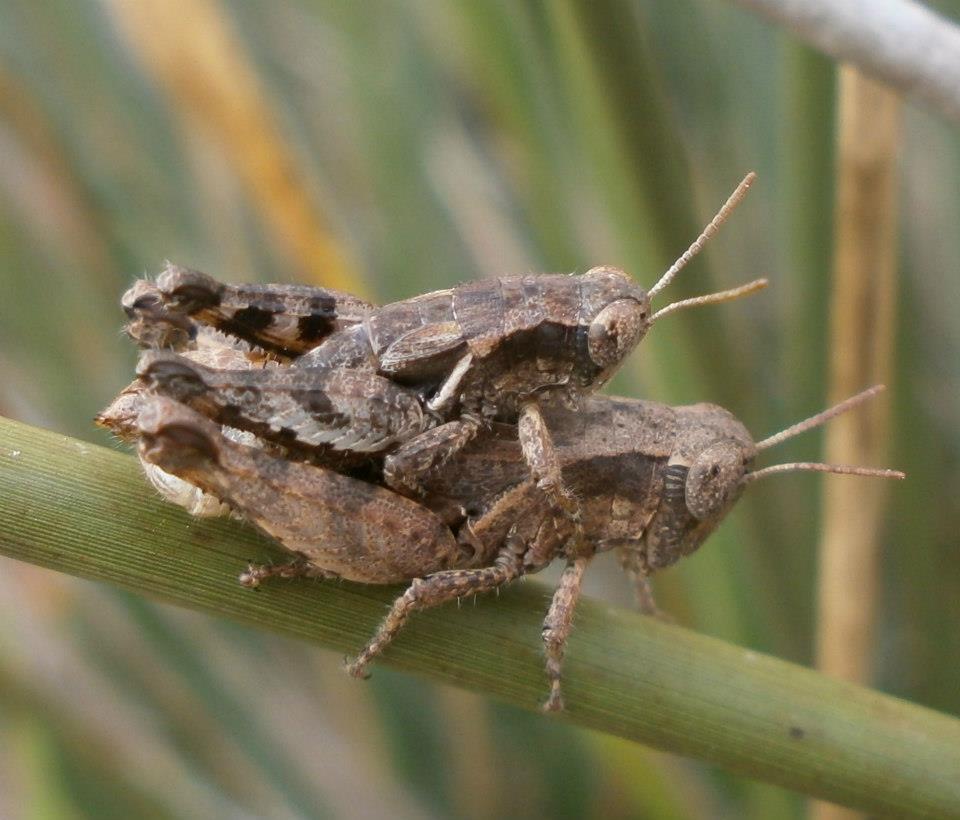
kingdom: Animalia
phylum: Arthropoda
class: Insecta
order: Orthoptera
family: Acrididae
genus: Pezotettix
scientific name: Pezotettix giornae
